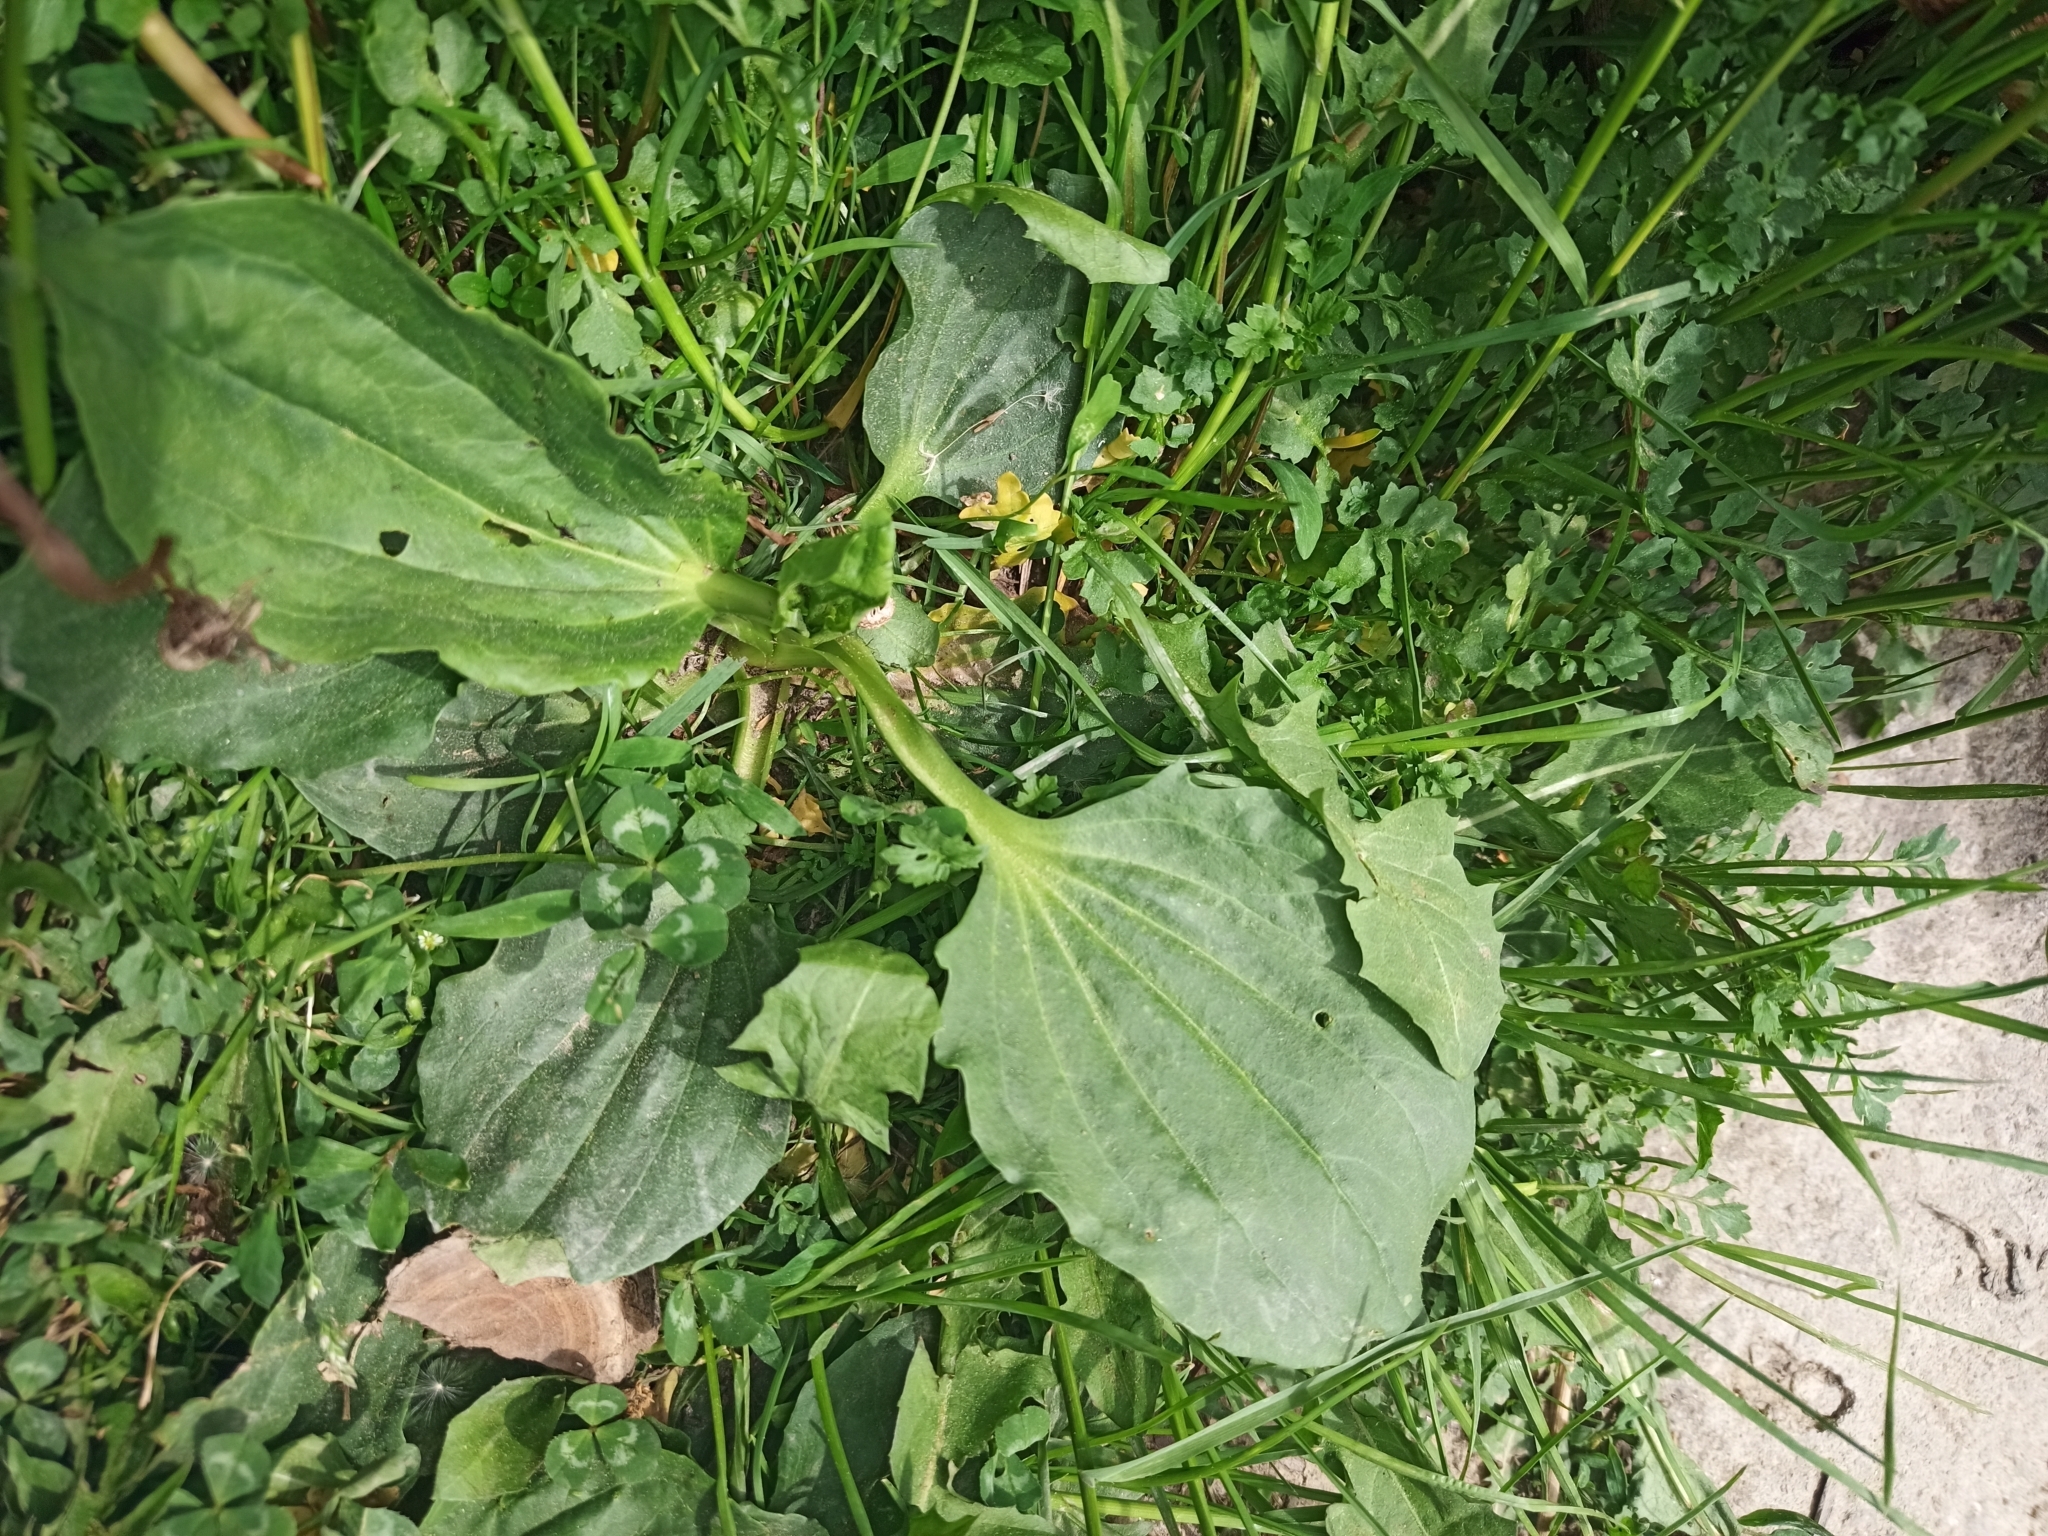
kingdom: Plantae
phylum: Tracheophyta
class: Magnoliopsida
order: Lamiales
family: Plantaginaceae
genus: Plantago
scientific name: Plantago major
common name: Common plantain
